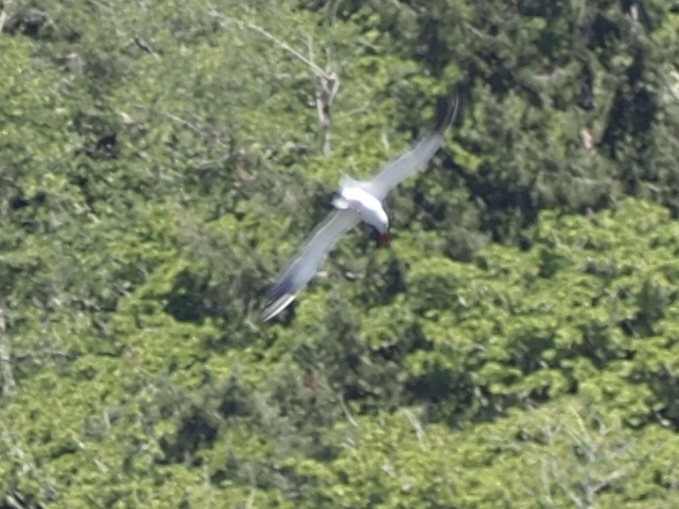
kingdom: Animalia
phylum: Chordata
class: Aves
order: Charadriiformes
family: Laridae
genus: Hydroprogne
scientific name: Hydroprogne caspia
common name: Caspian tern
